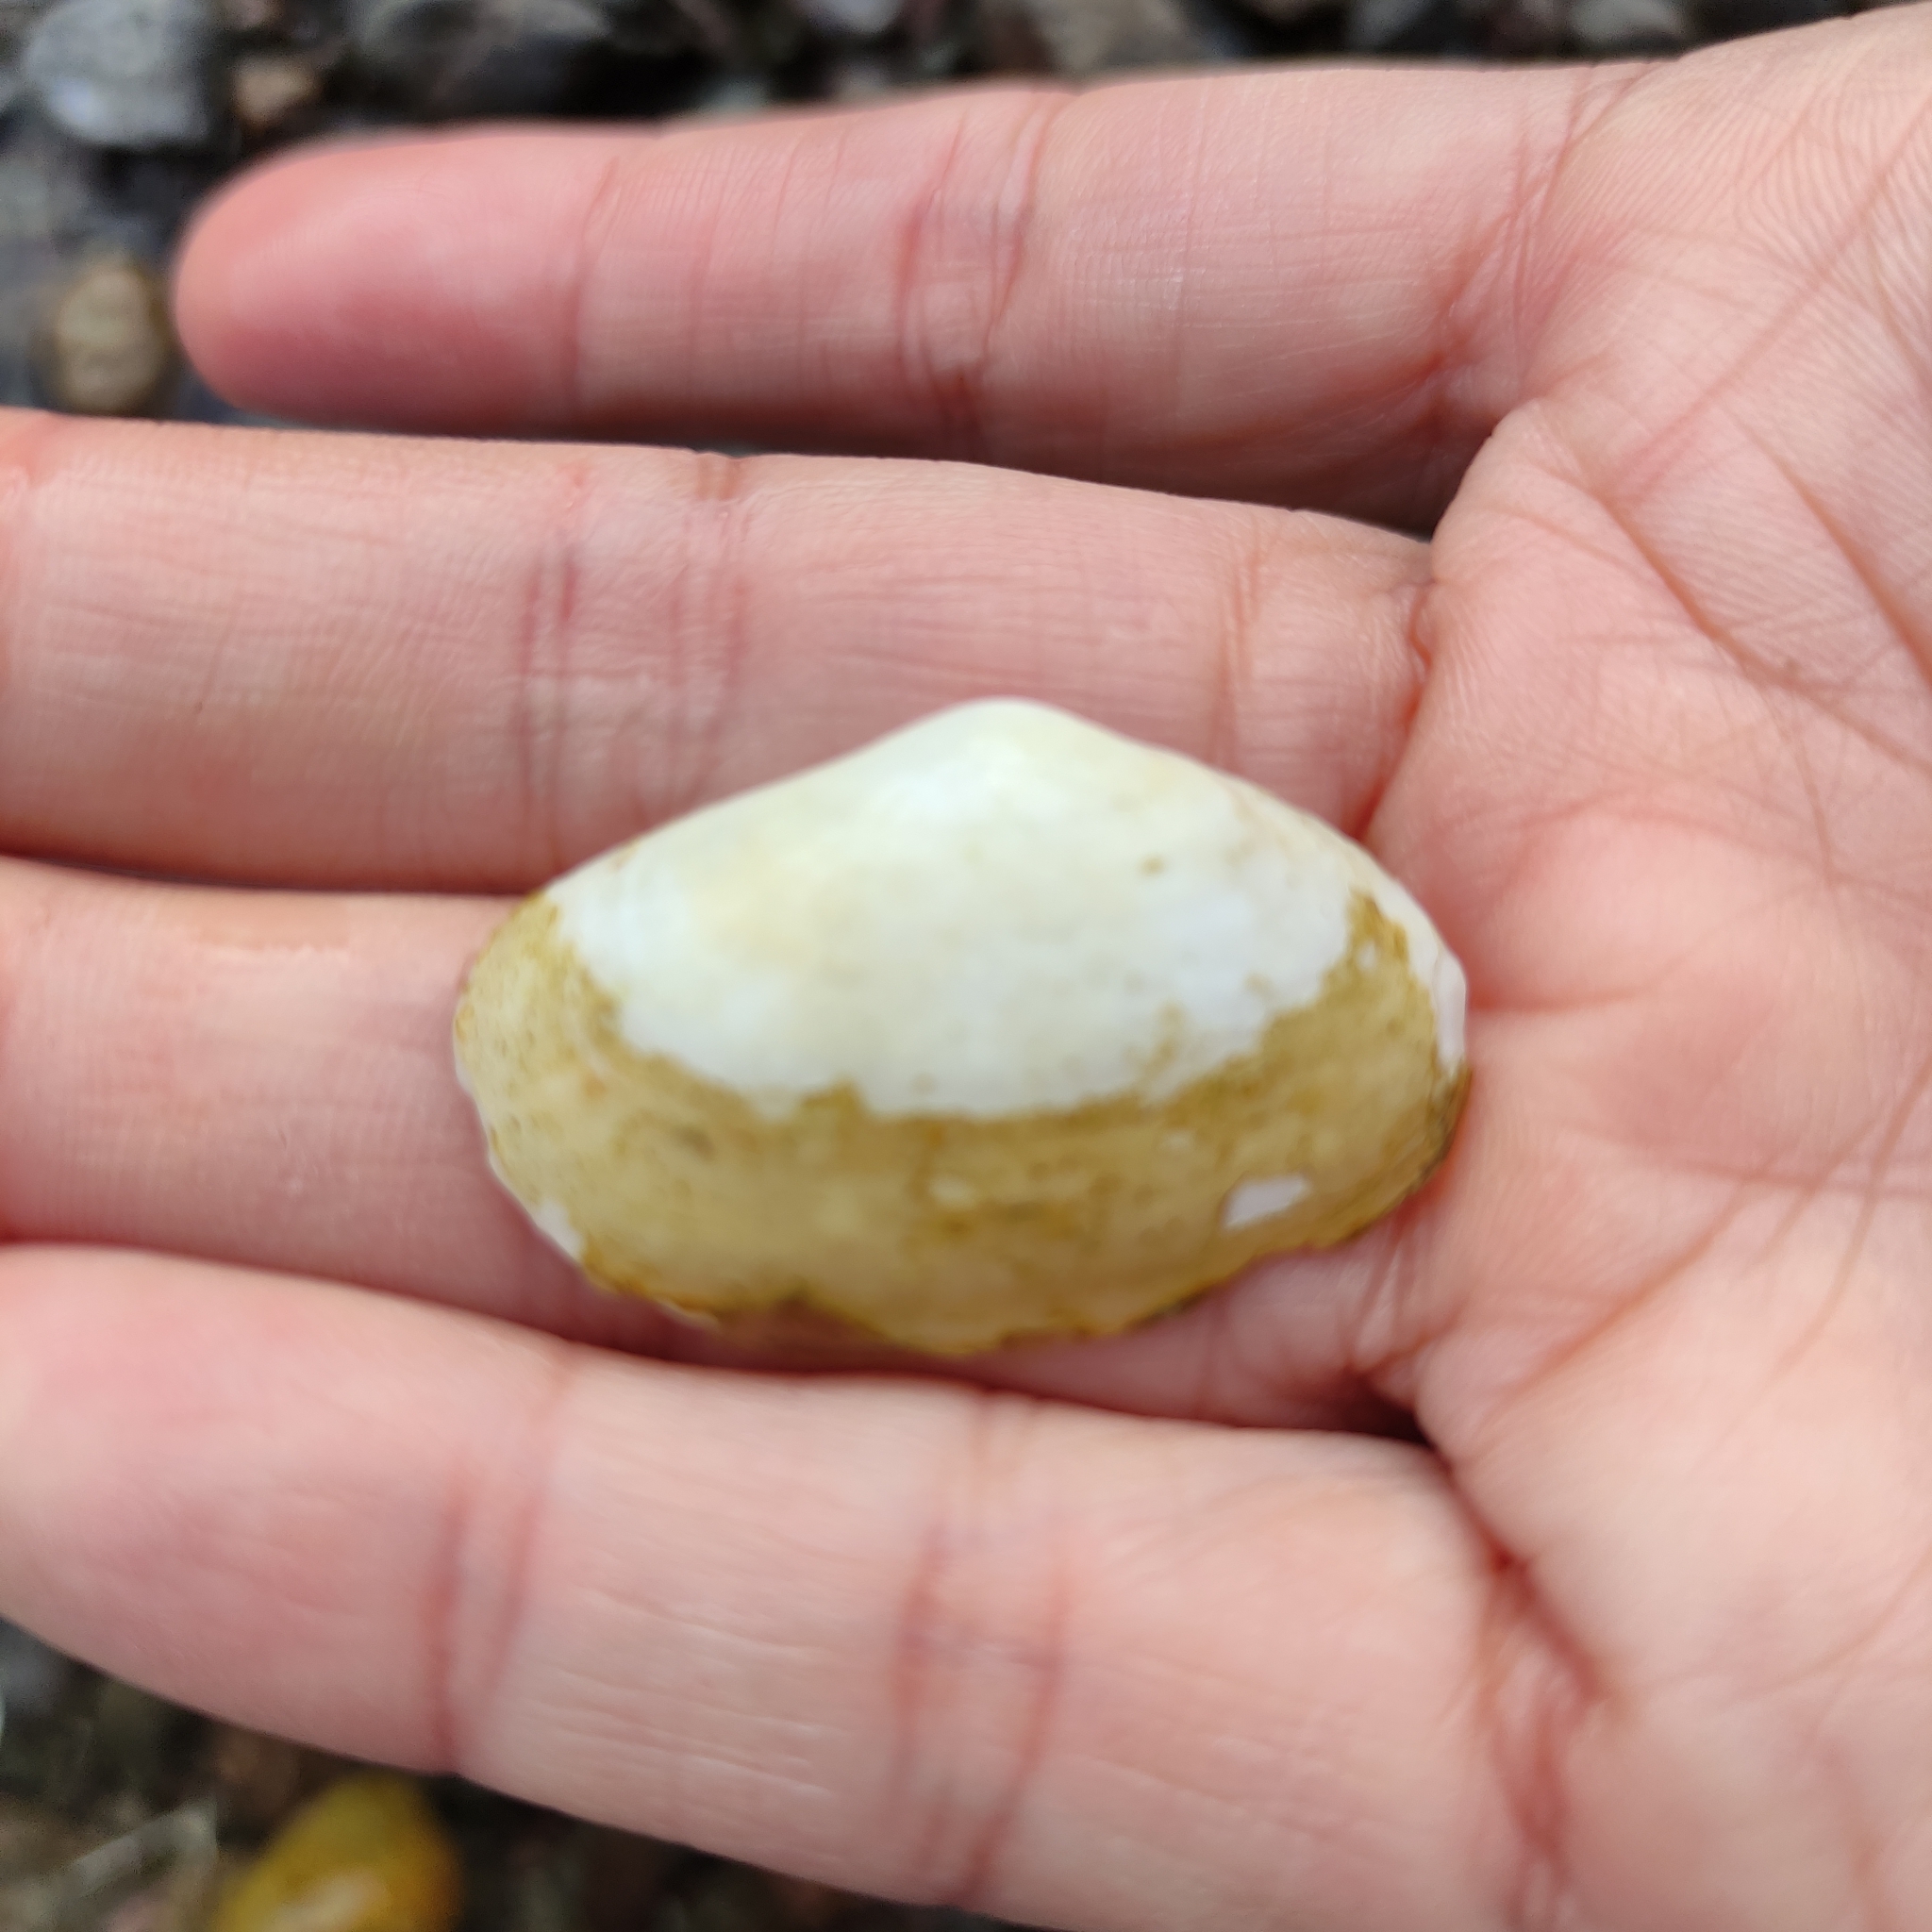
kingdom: Animalia
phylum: Mollusca
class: Bivalvia
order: Venerida
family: Mesodesmatidae
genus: Paphies
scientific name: Paphies australis
